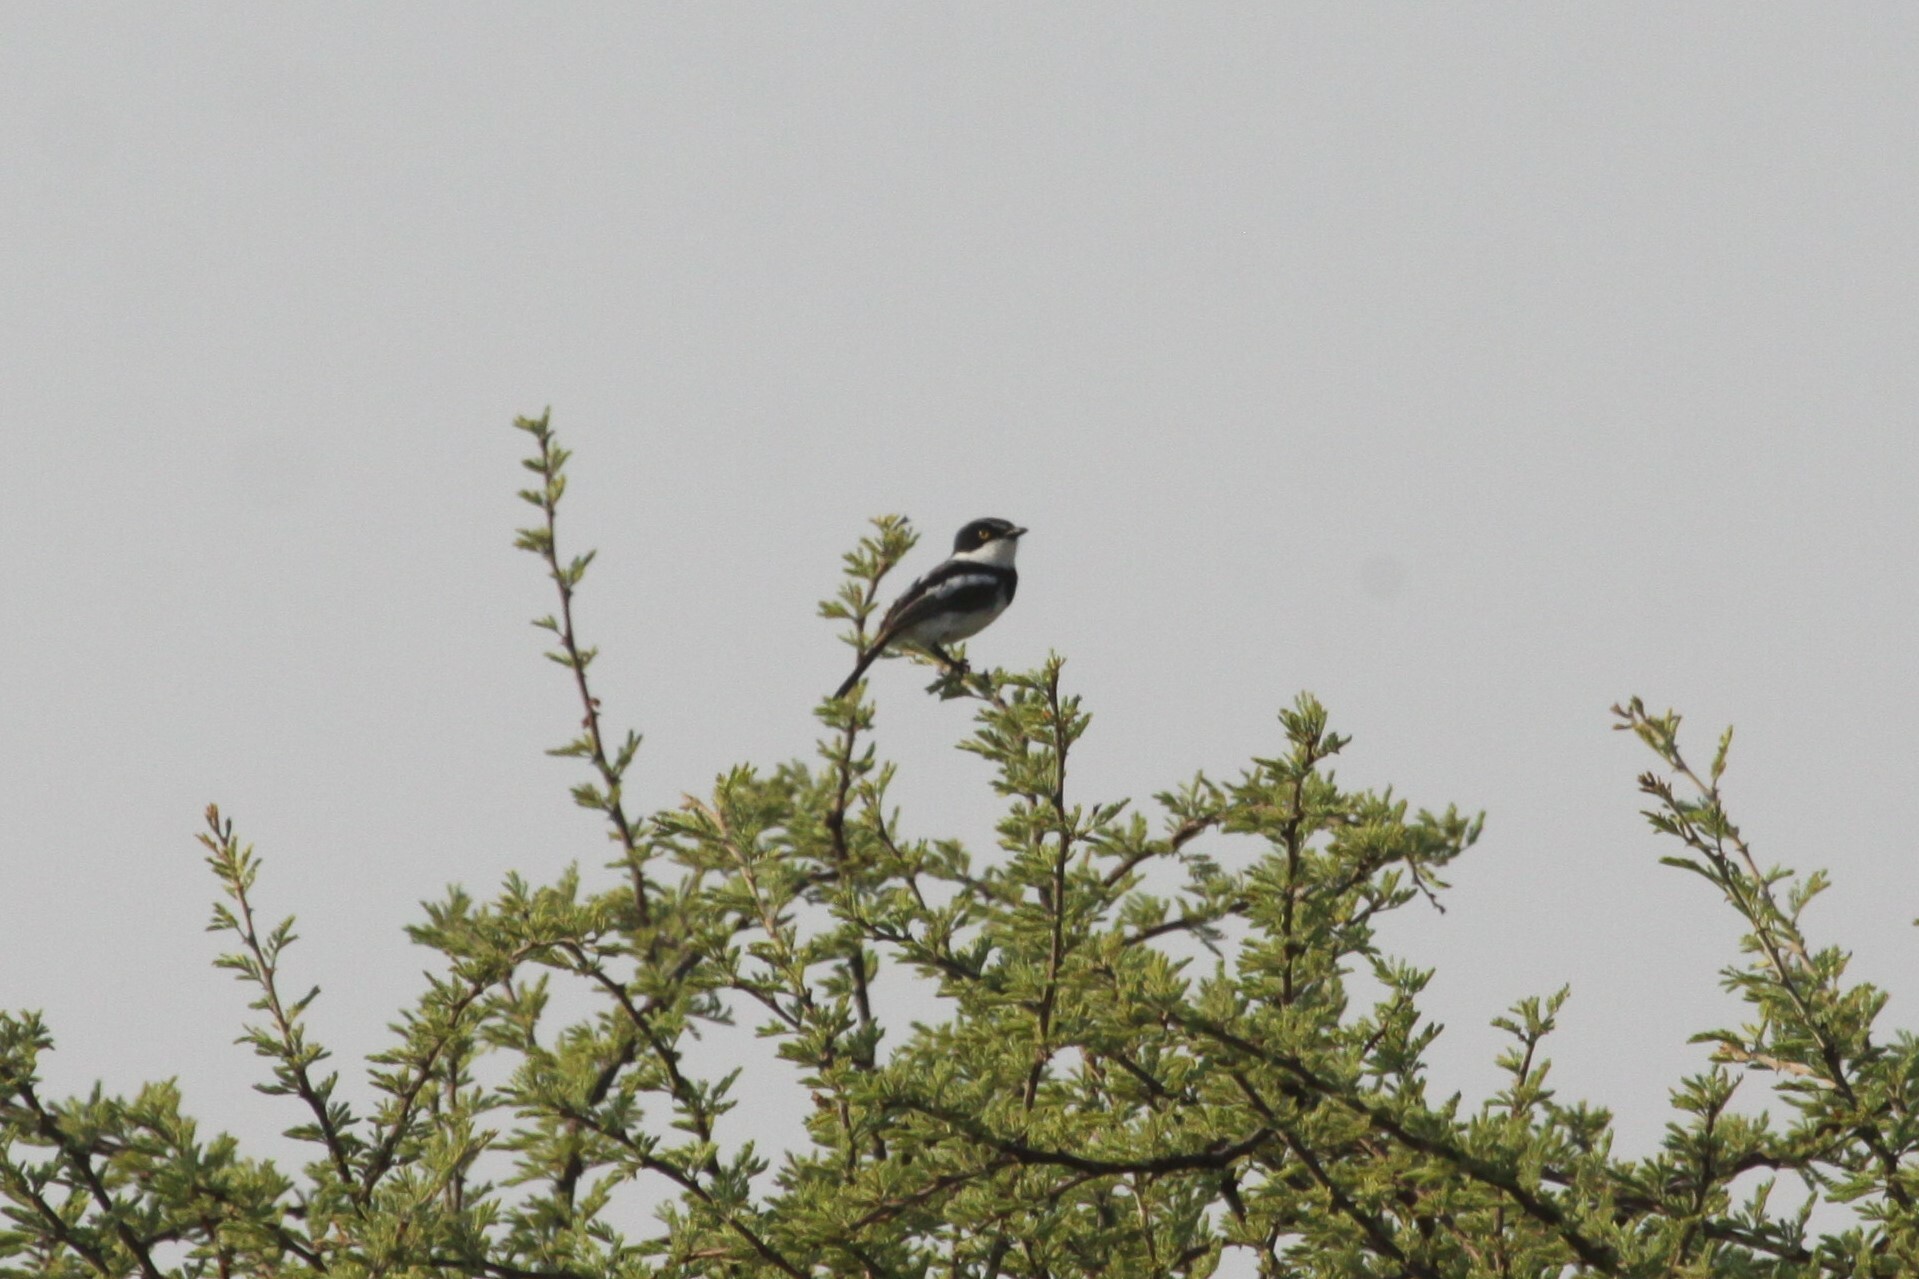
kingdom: Animalia
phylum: Chordata
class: Aves
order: Passeriformes
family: Platysteiridae
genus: Batis
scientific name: Batis molitor
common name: Chinspot batis
